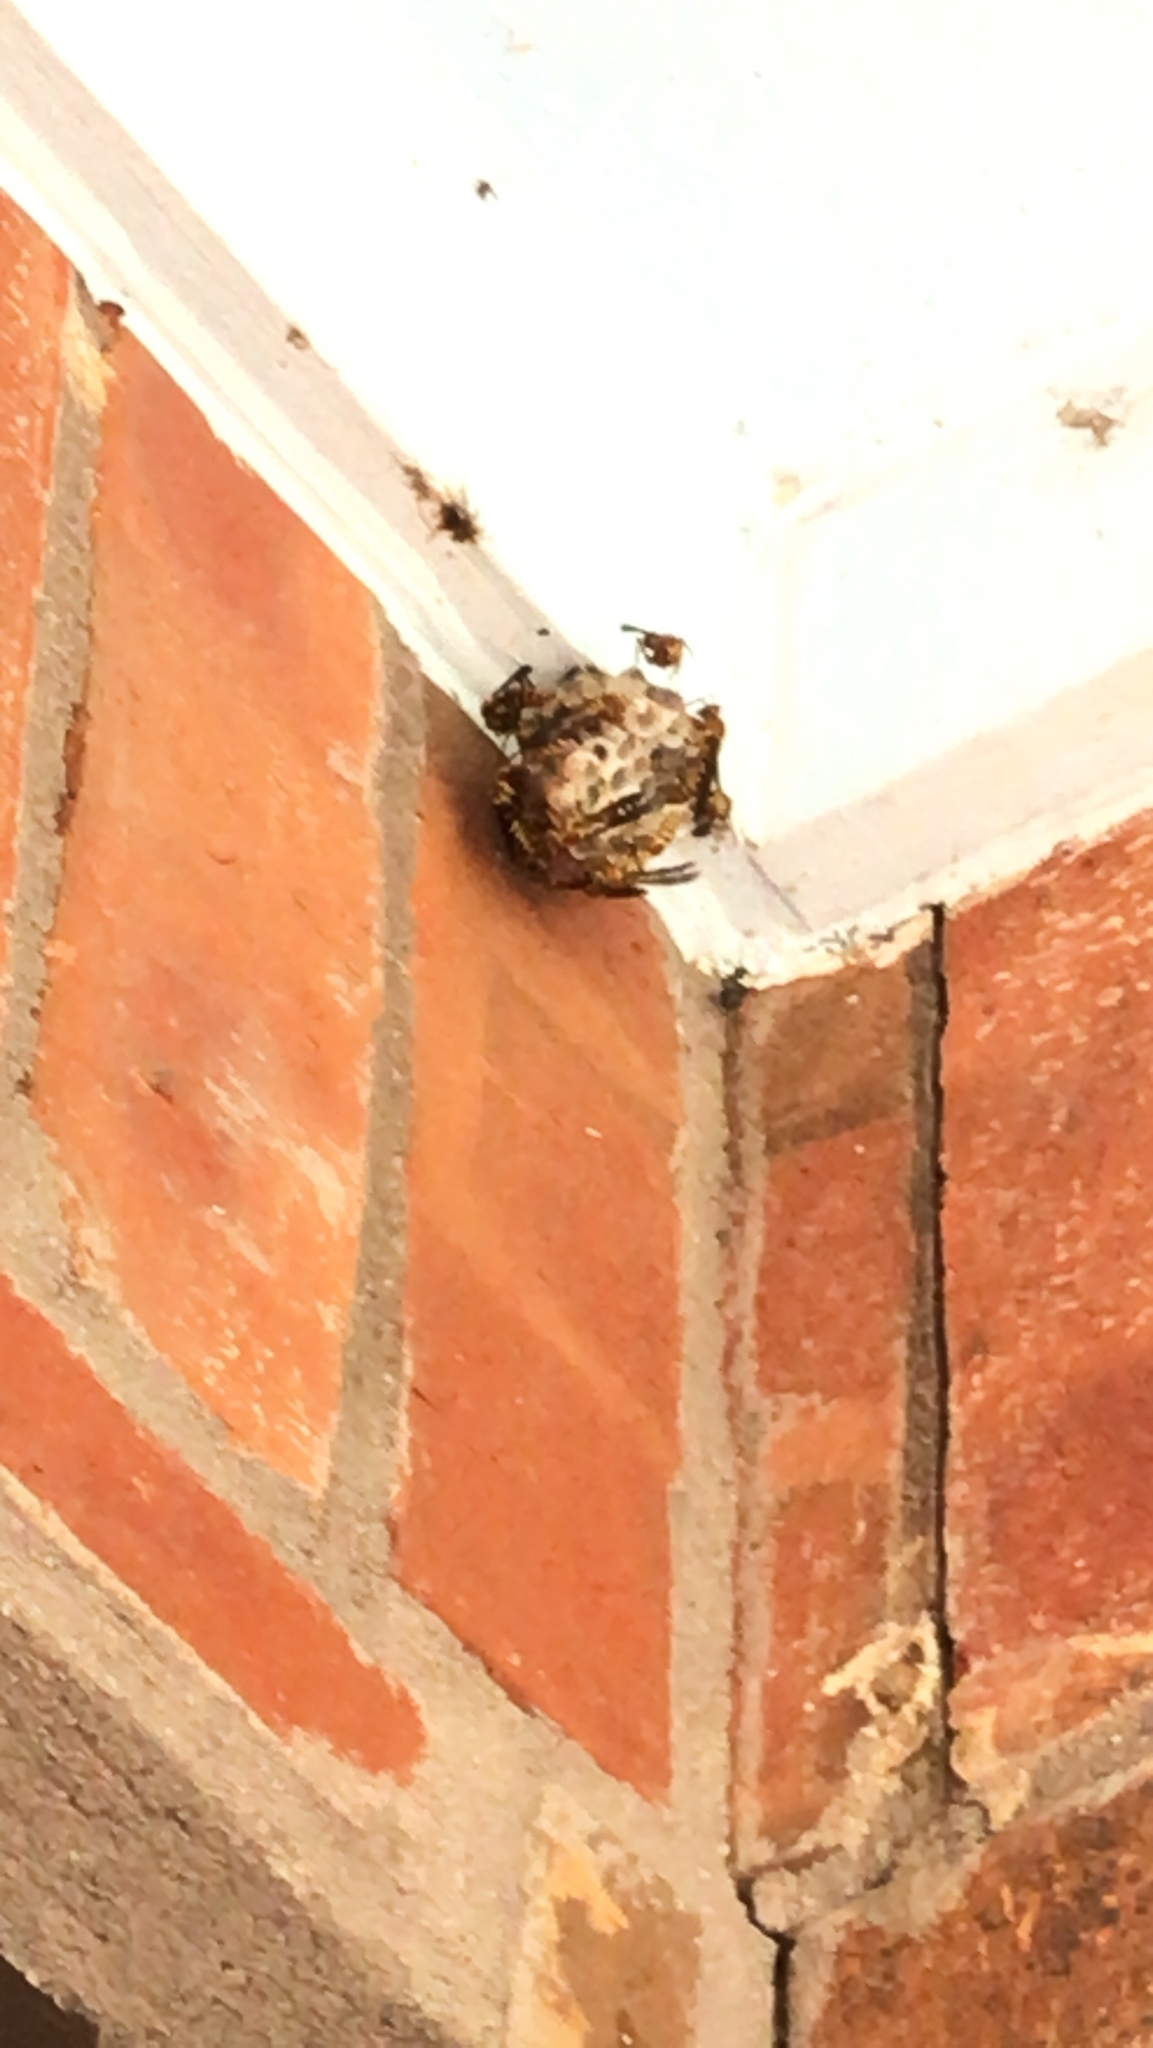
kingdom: Animalia
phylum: Arthropoda
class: Insecta
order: Hymenoptera
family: Eumenidae
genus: Polistes
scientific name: Polistes
